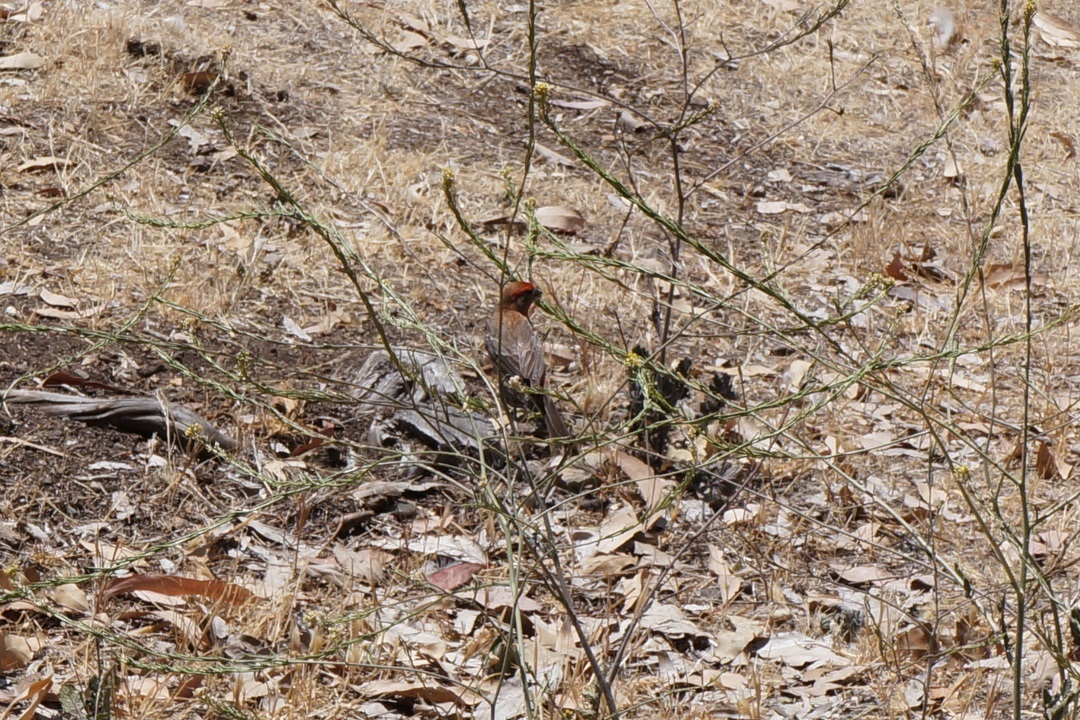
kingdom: Animalia
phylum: Chordata
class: Aves
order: Passeriformes
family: Fringillidae
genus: Haemorhous
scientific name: Haemorhous mexicanus
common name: House finch
